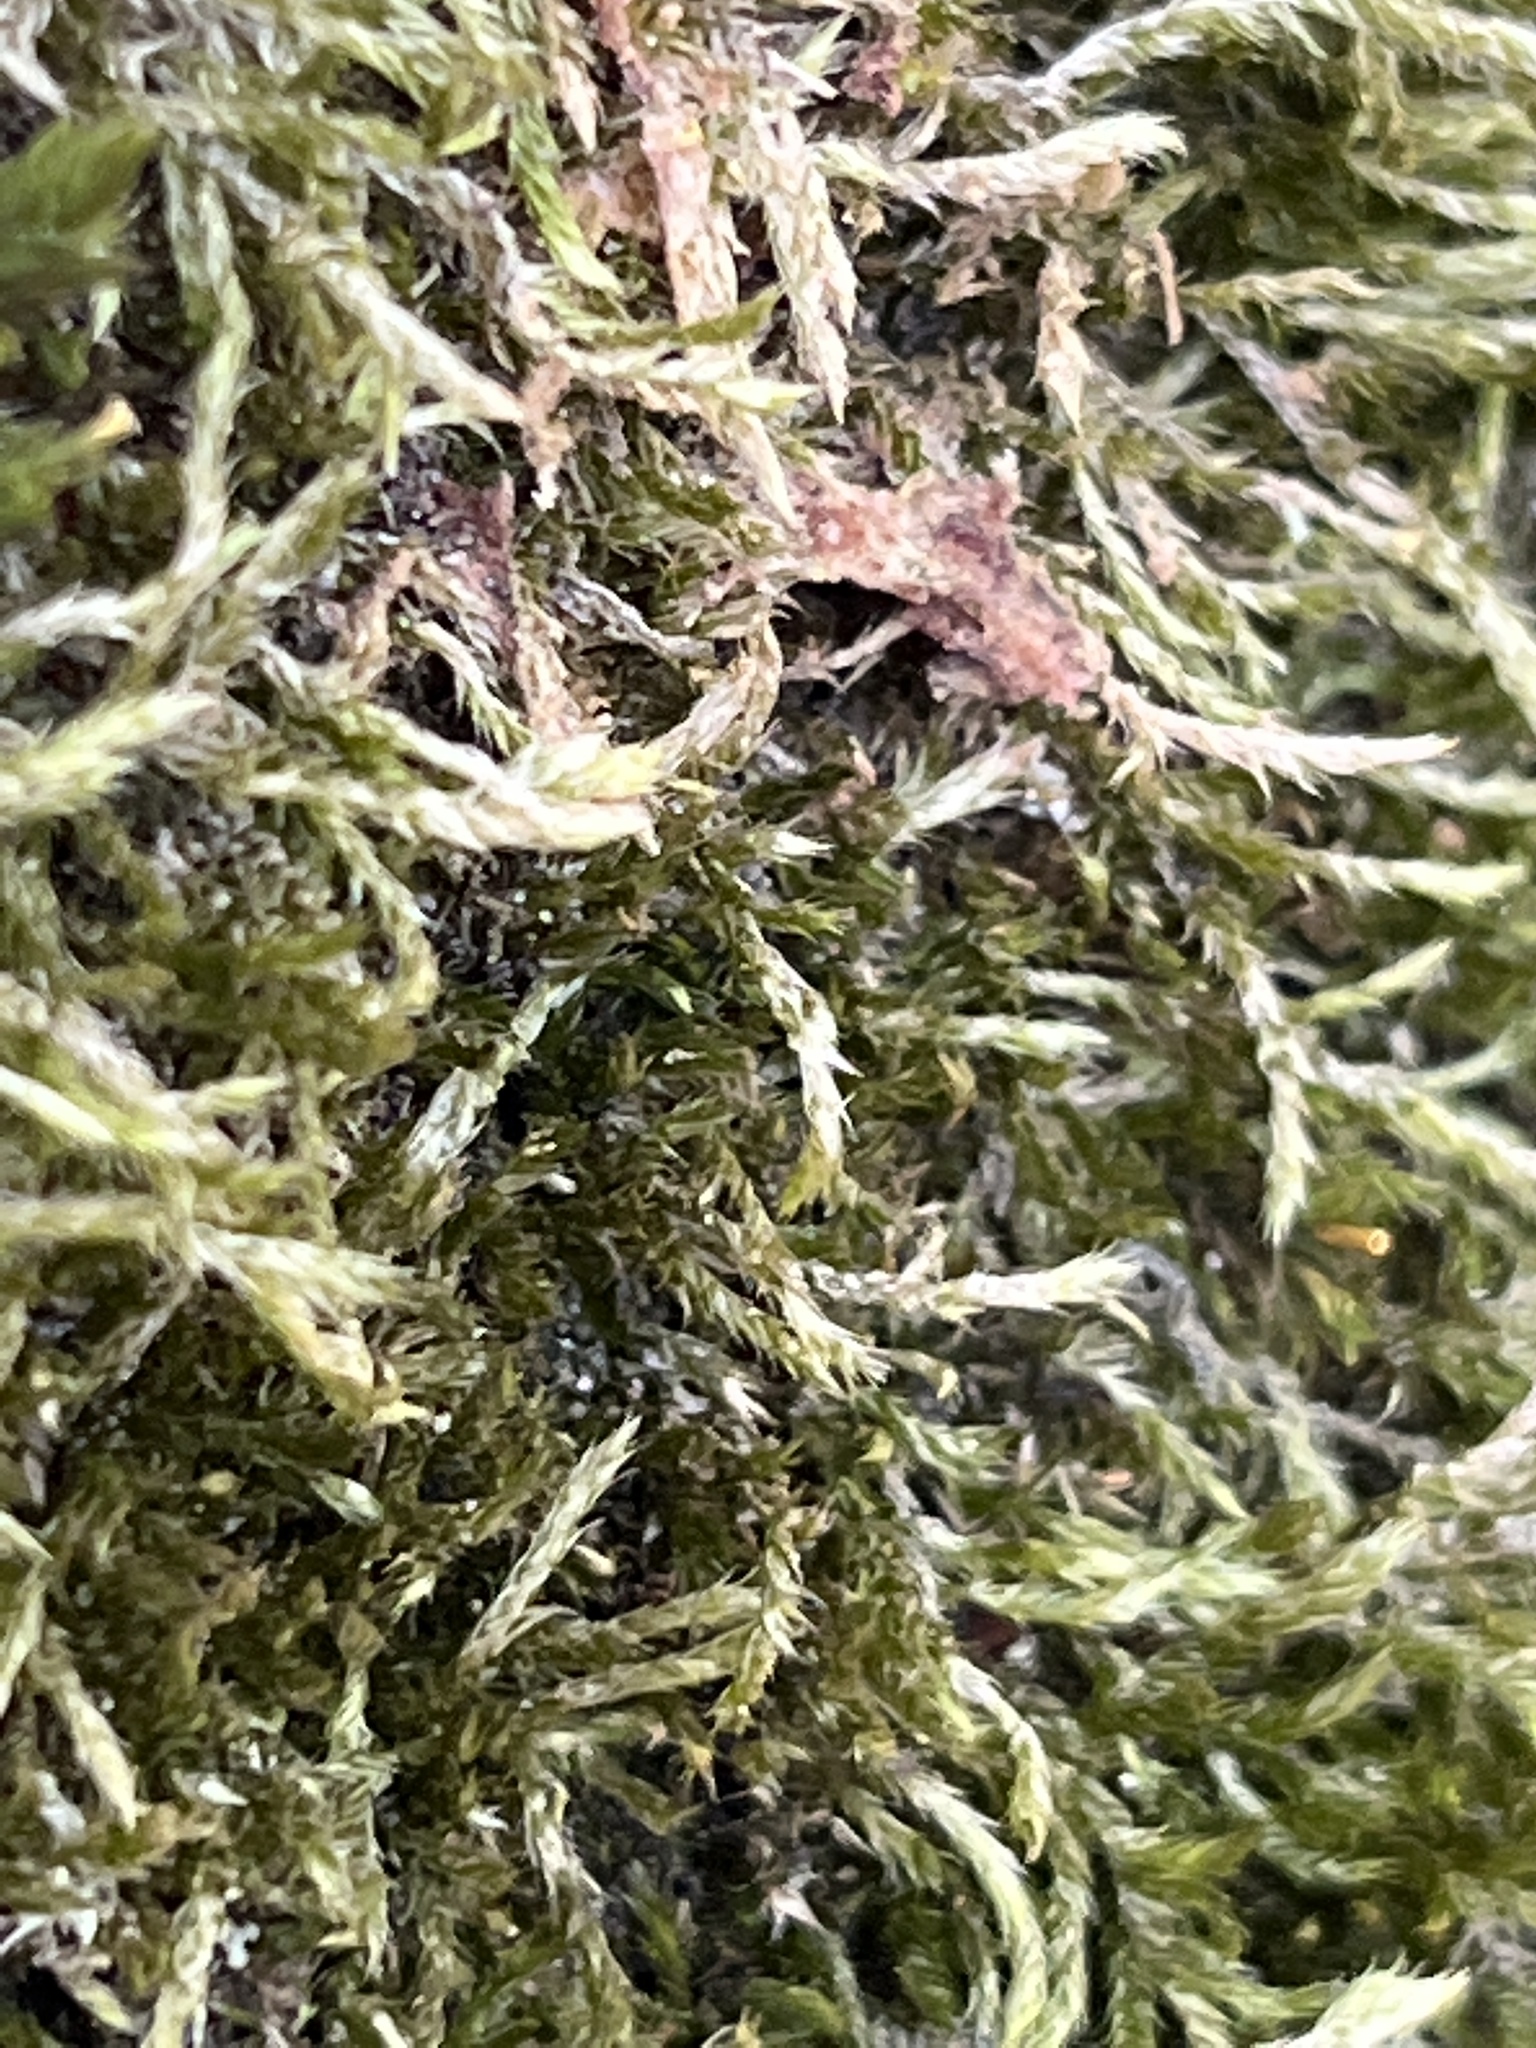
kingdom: Plantae
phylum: Bryophyta
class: Bryopsida
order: Hypnales
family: Hypnaceae
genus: Hypnum
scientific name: Hypnum cupressiforme
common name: Cypress-leaved plait-moss
